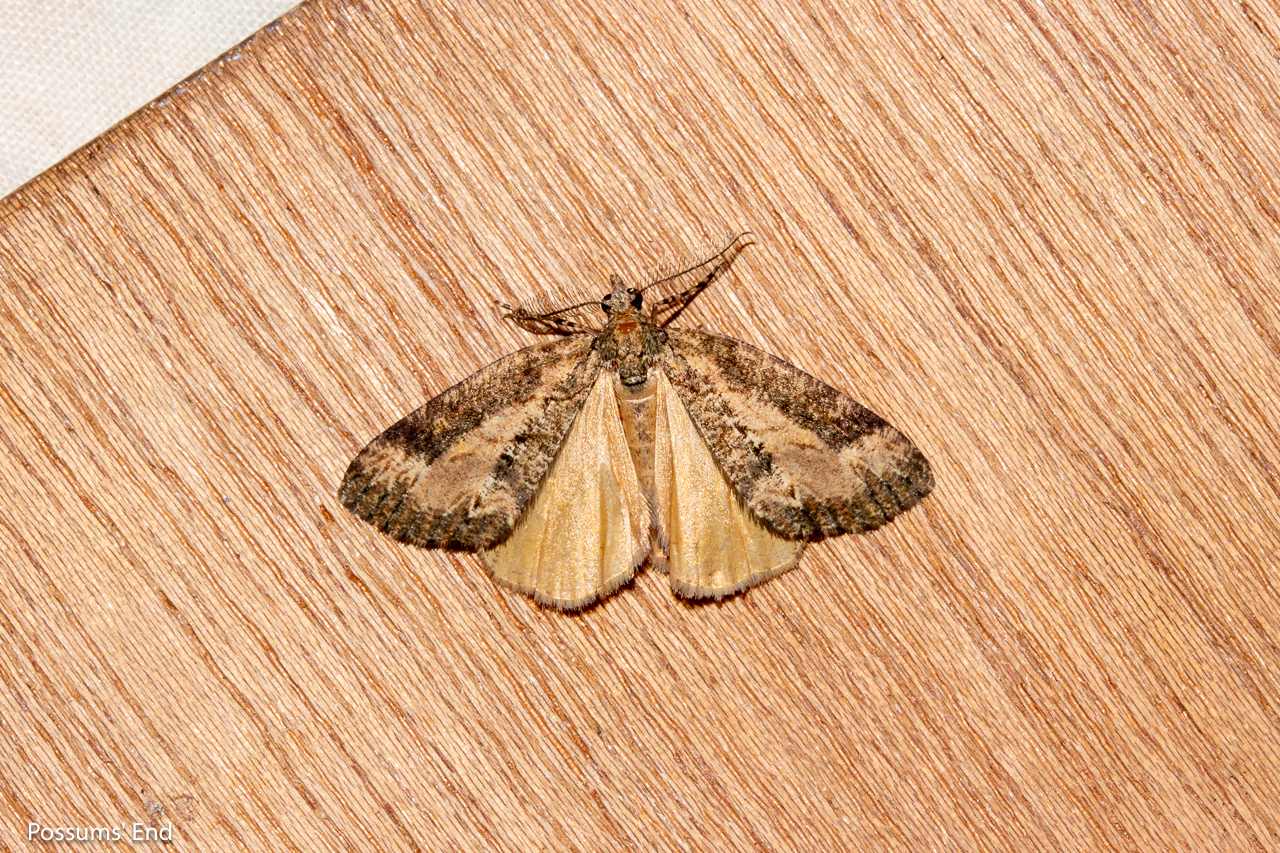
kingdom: Animalia
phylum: Arthropoda
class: Insecta
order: Lepidoptera
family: Geometridae
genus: Chalastra
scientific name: Chalastra ochrea
